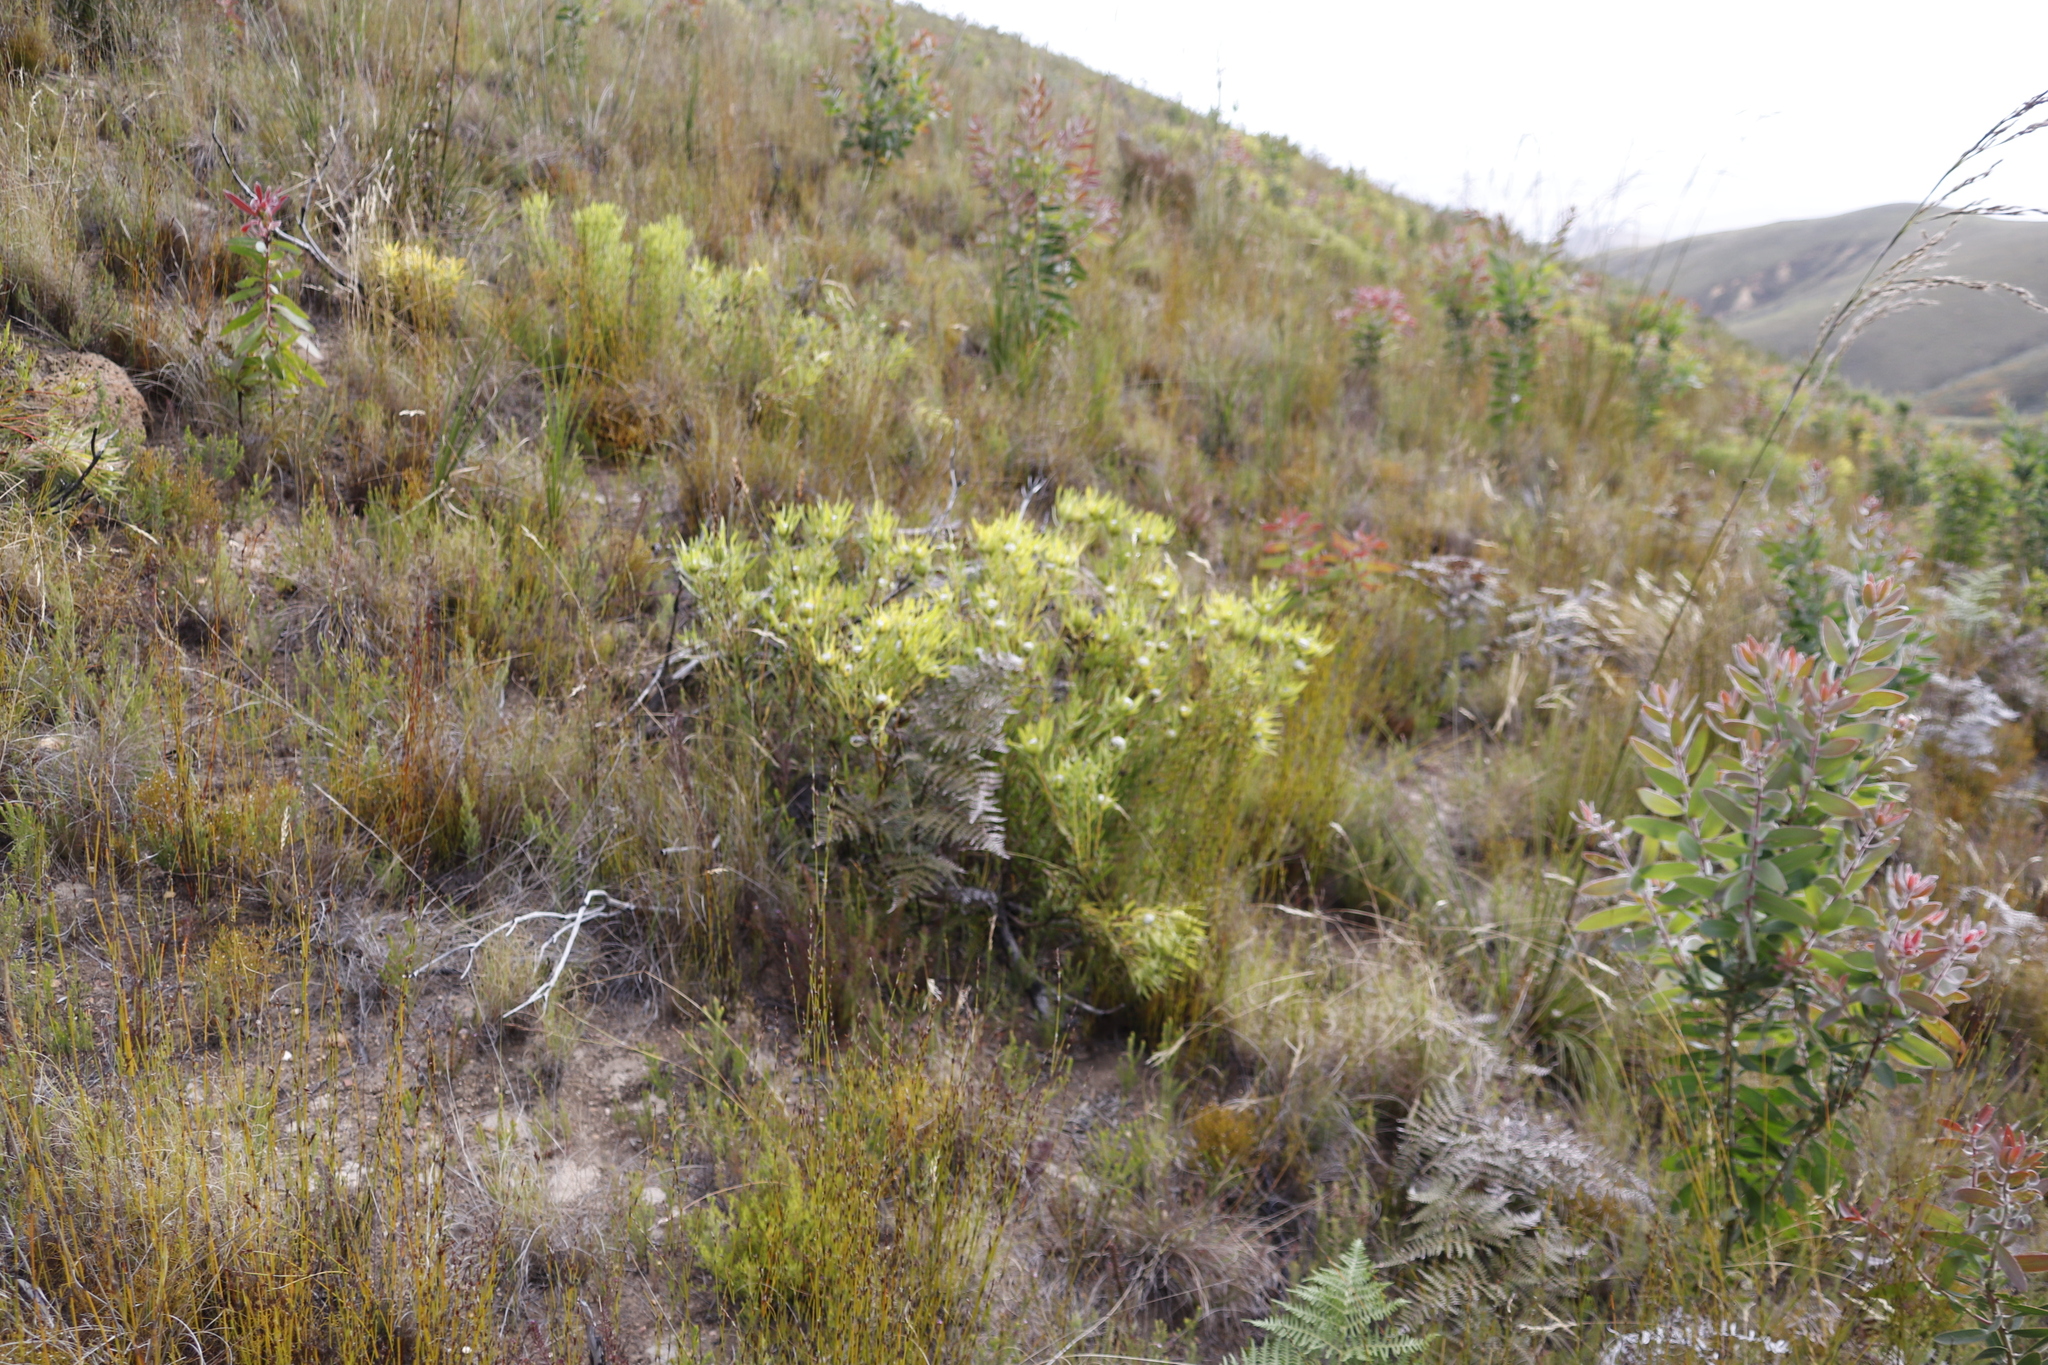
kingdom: Plantae
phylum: Tracheophyta
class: Magnoliopsida
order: Proteales
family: Proteaceae
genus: Leucadendron
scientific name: Leucadendron salignum
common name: Common sunshine conebush
